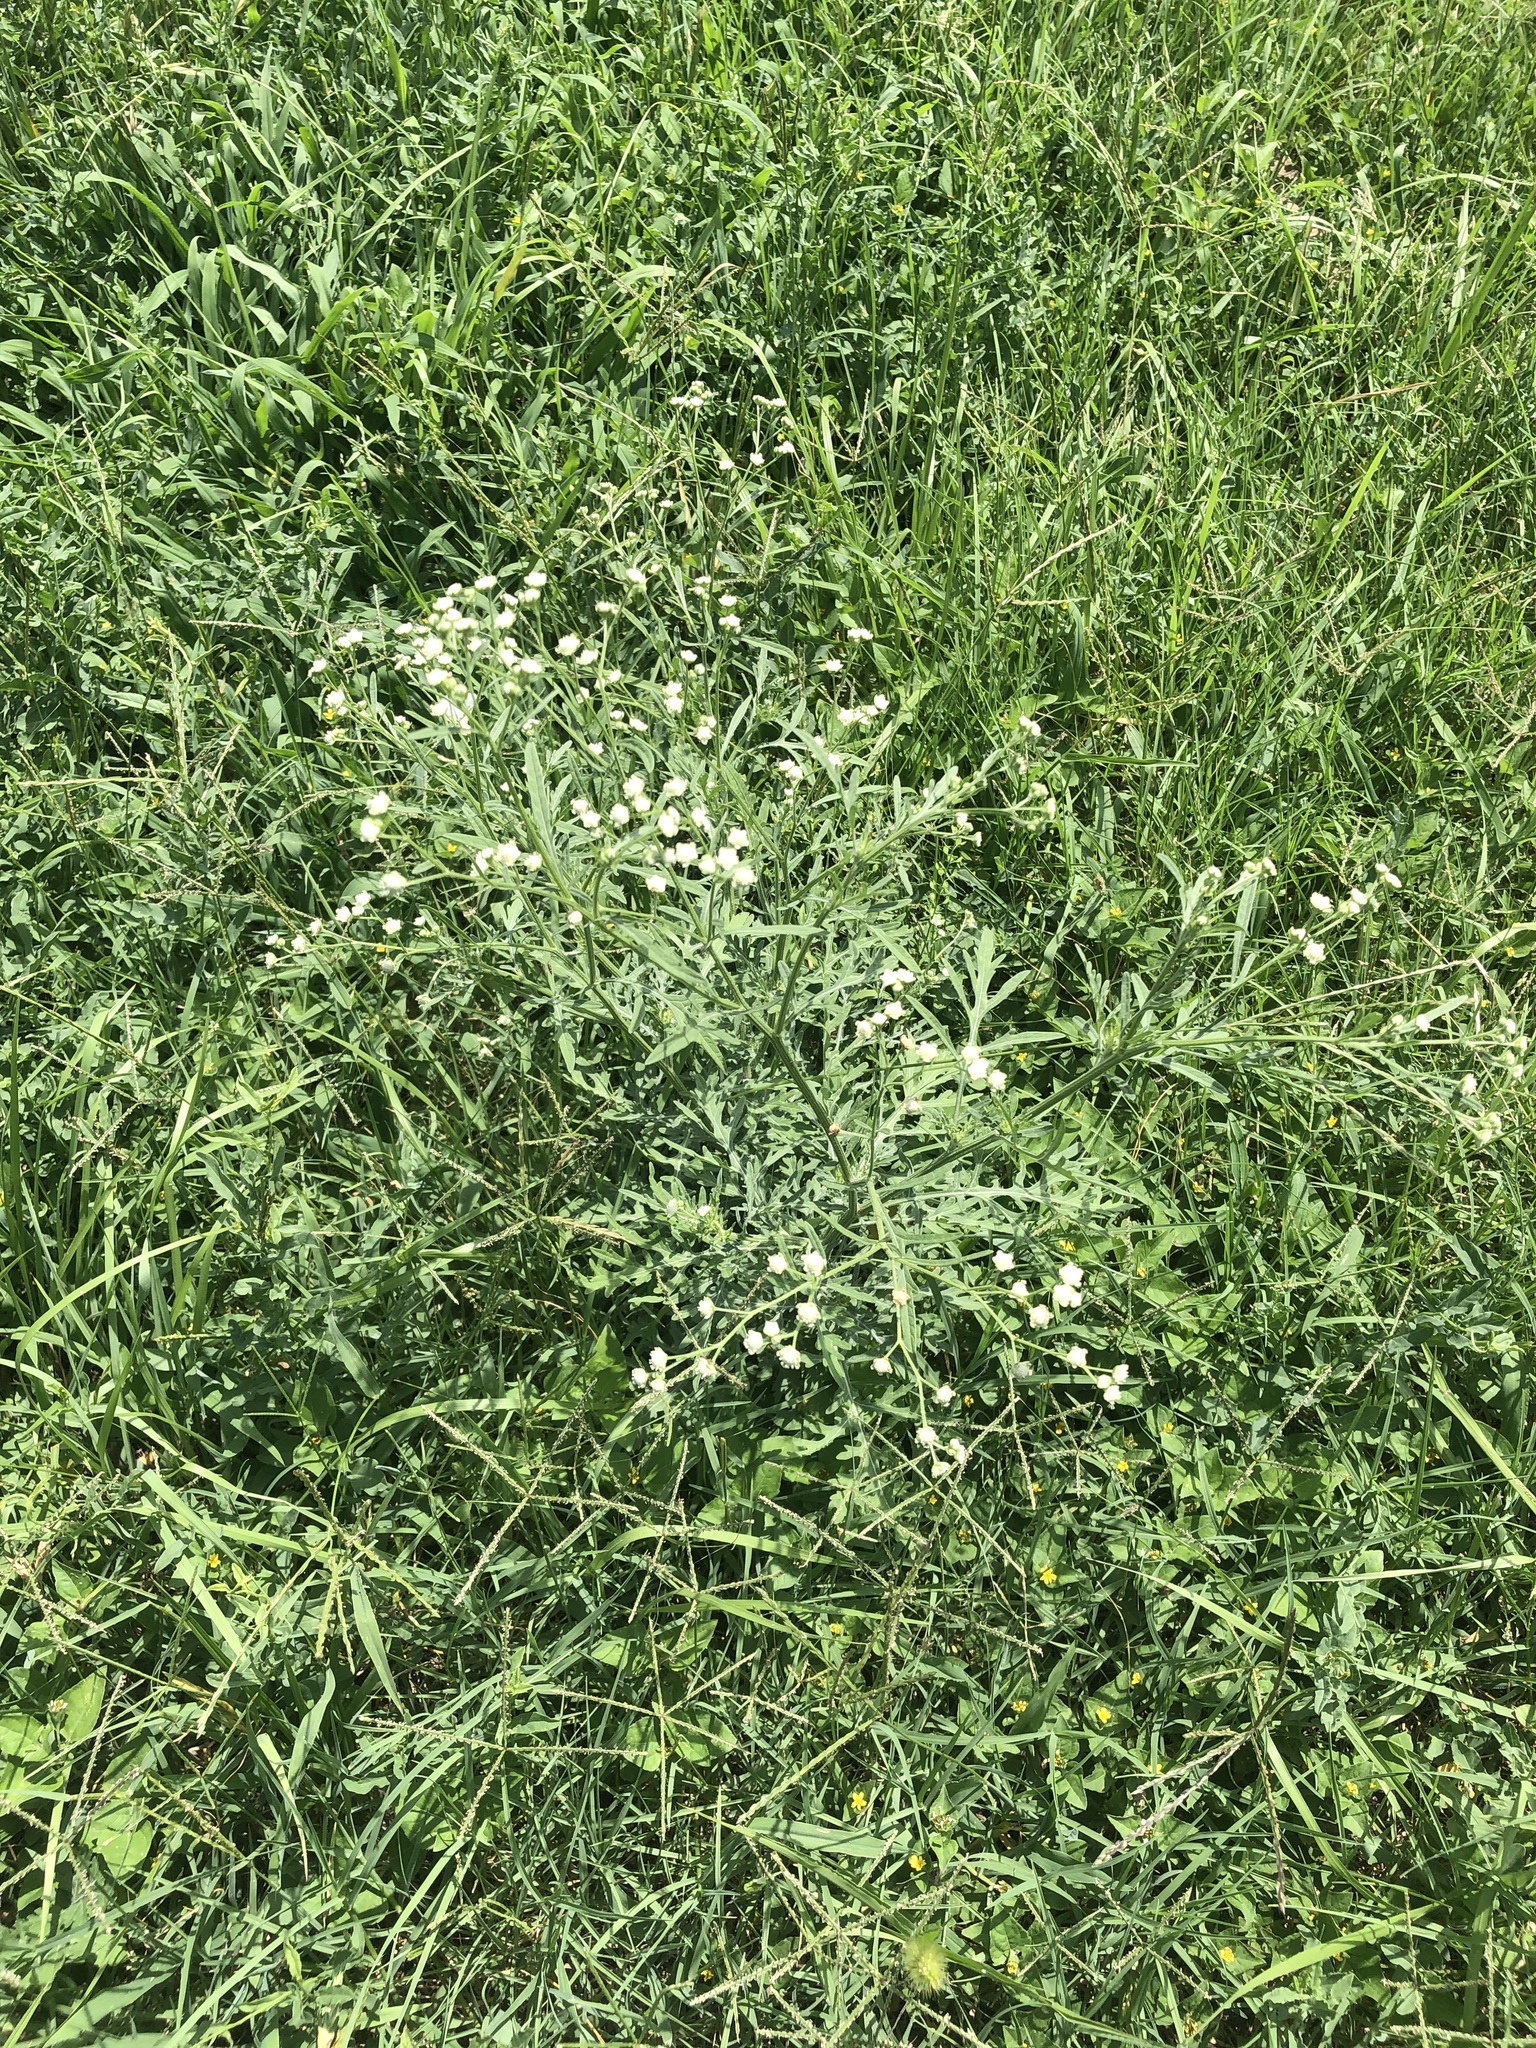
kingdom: Plantae
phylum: Tracheophyta
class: Magnoliopsida
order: Asterales
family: Asteraceae
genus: Parthenium
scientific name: Parthenium hysterophorus
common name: Santa maria feverfew
